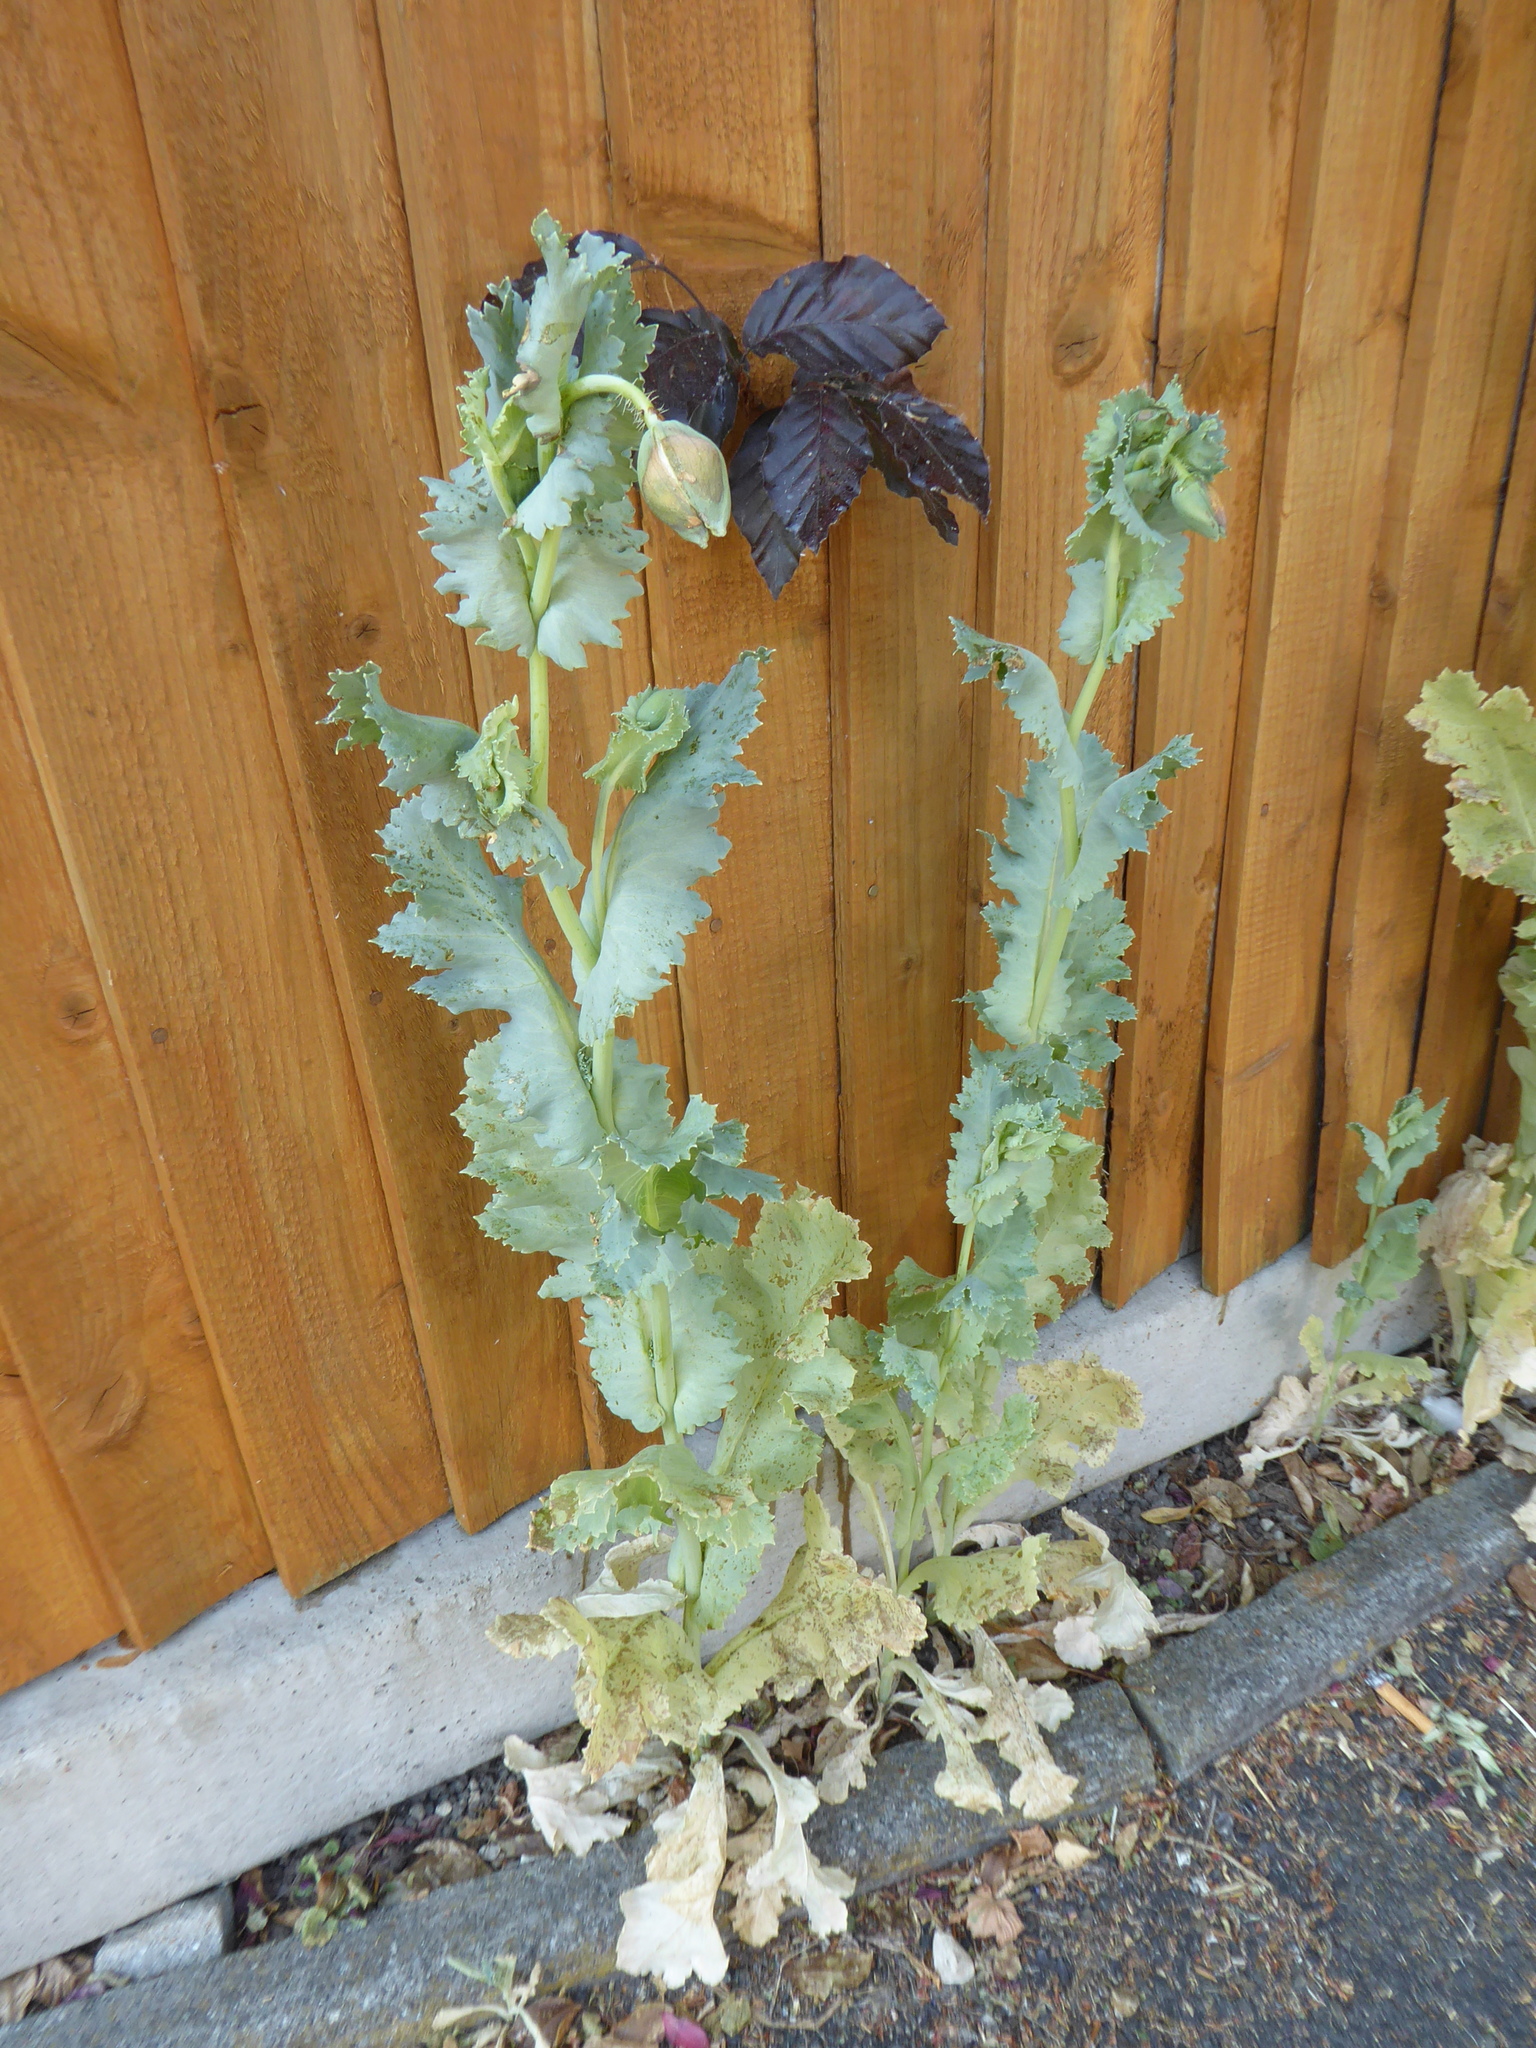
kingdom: Plantae
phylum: Tracheophyta
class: Magnoliopsida
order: Ranunculales
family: Papaveraceae
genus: Papaver
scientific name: Papaver somniferum
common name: Opium poppy
